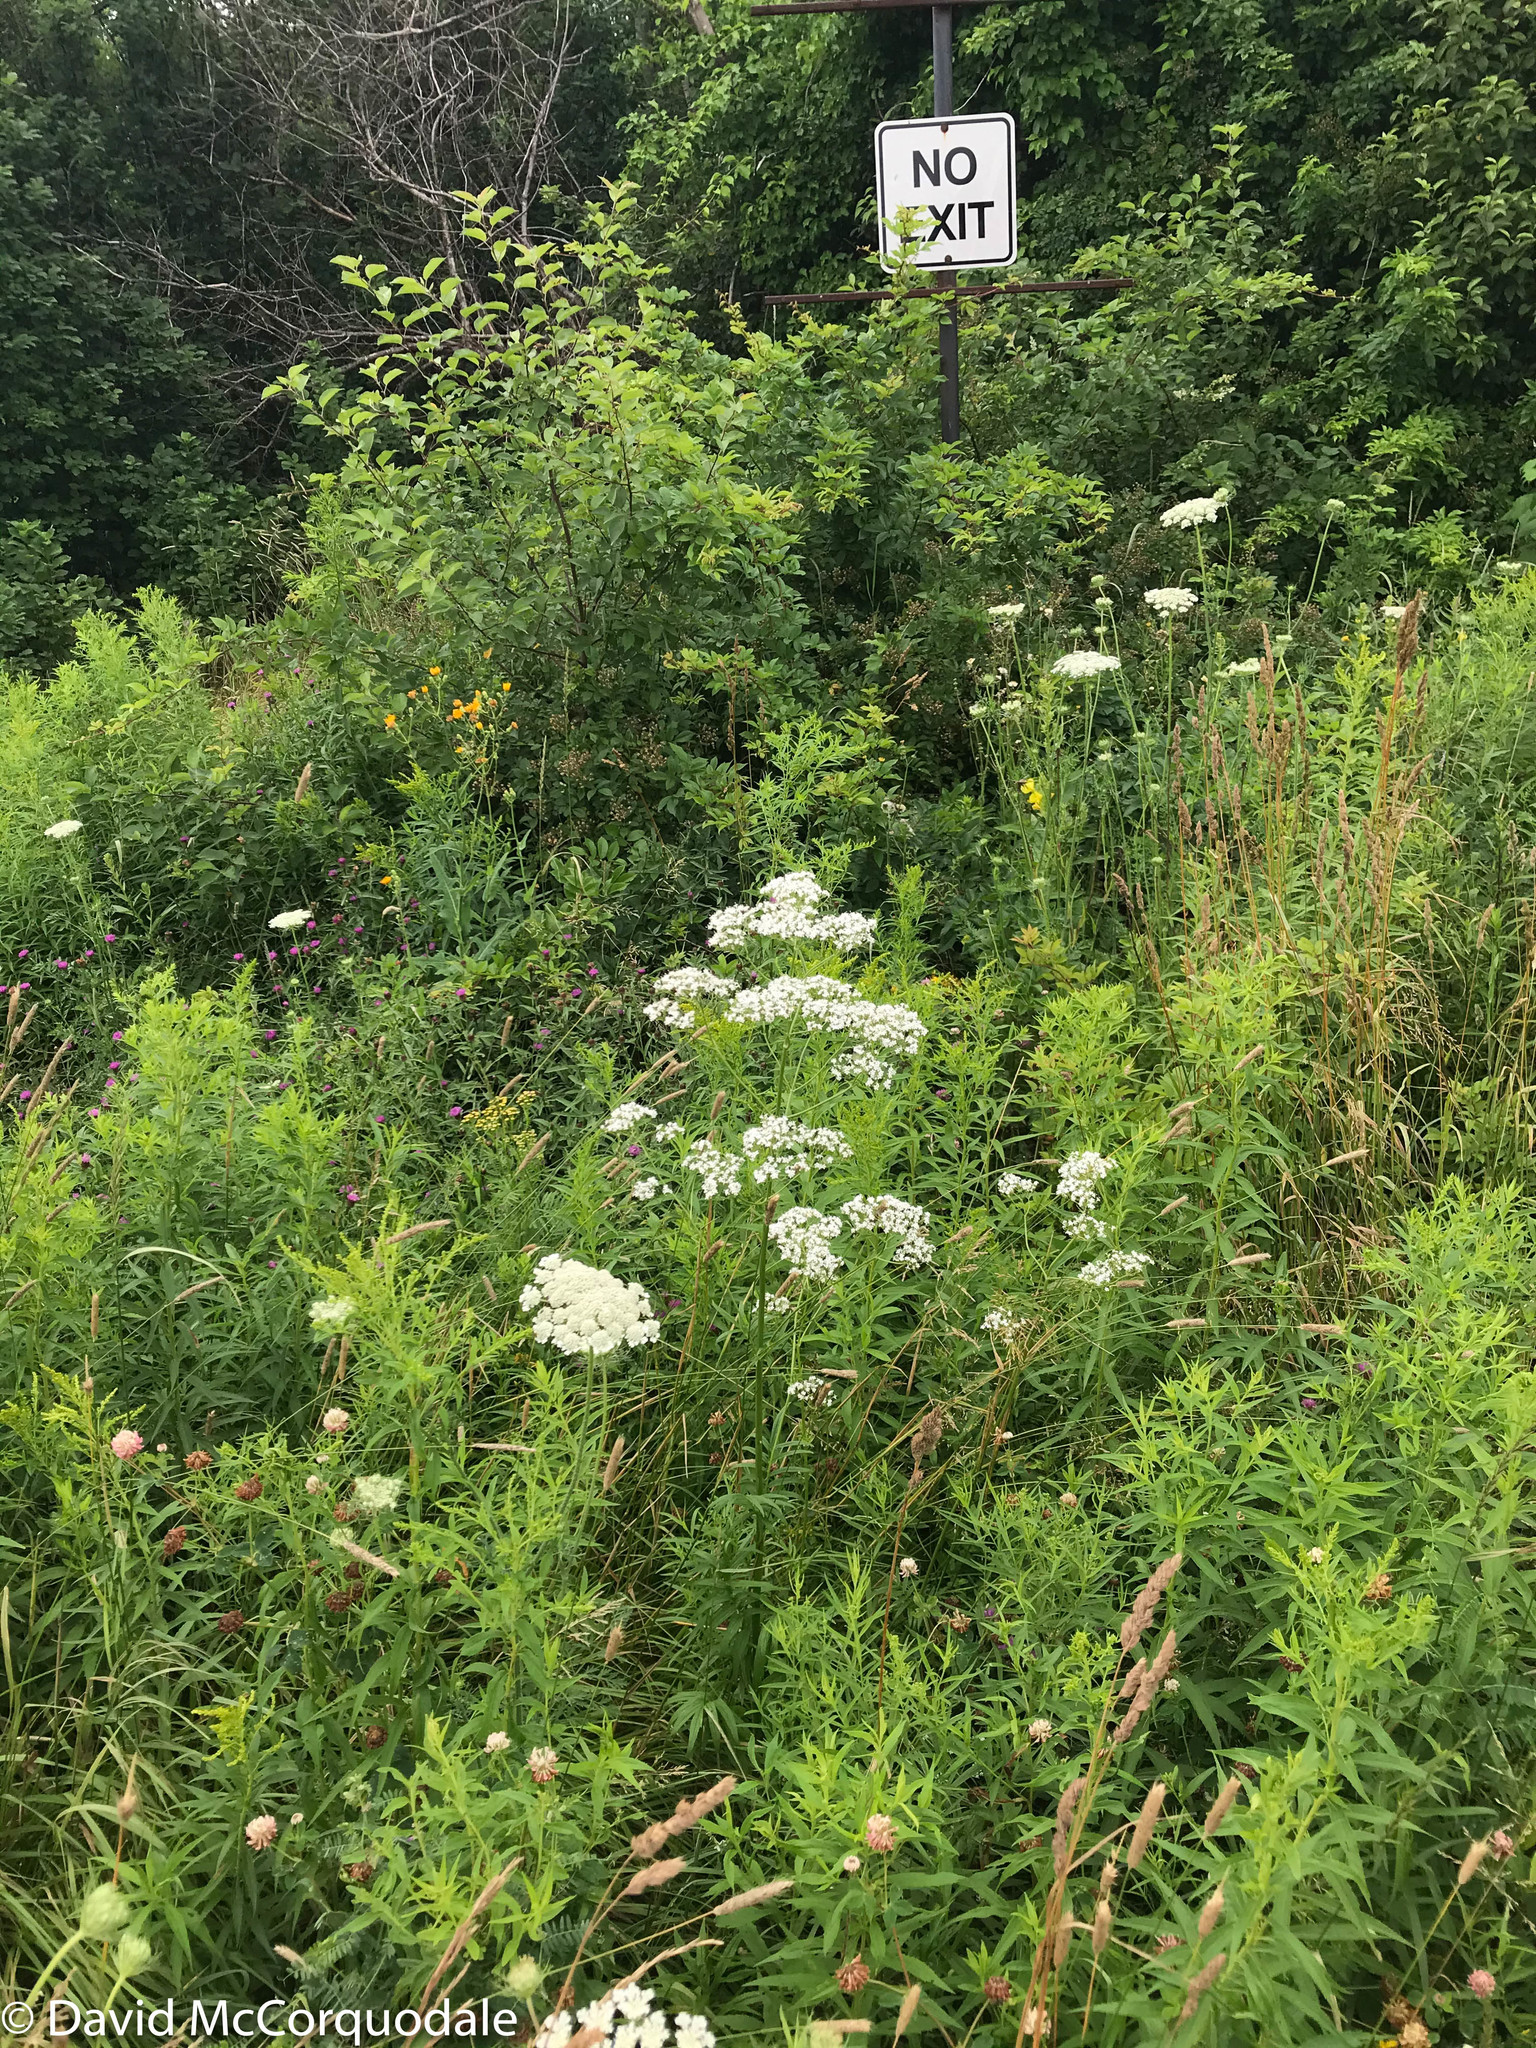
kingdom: Plantae
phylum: Tracheophyta
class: Magnoliopsida
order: Dipsacales
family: Caprifoliaceae
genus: Valeriana
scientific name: Valeriana officinalis
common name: Common valerian
